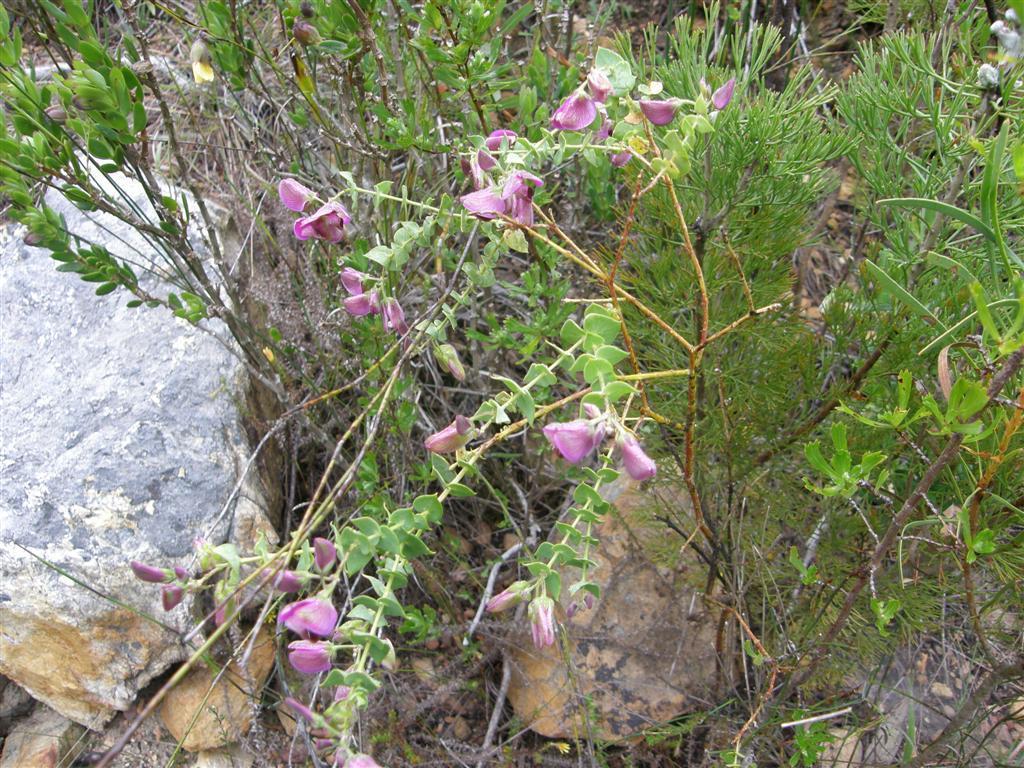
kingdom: Plantae
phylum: Tracheophyta
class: Magnoliopsida
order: Fabales
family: Polygalaceae
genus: Polygala
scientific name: Polygala fruticosa
